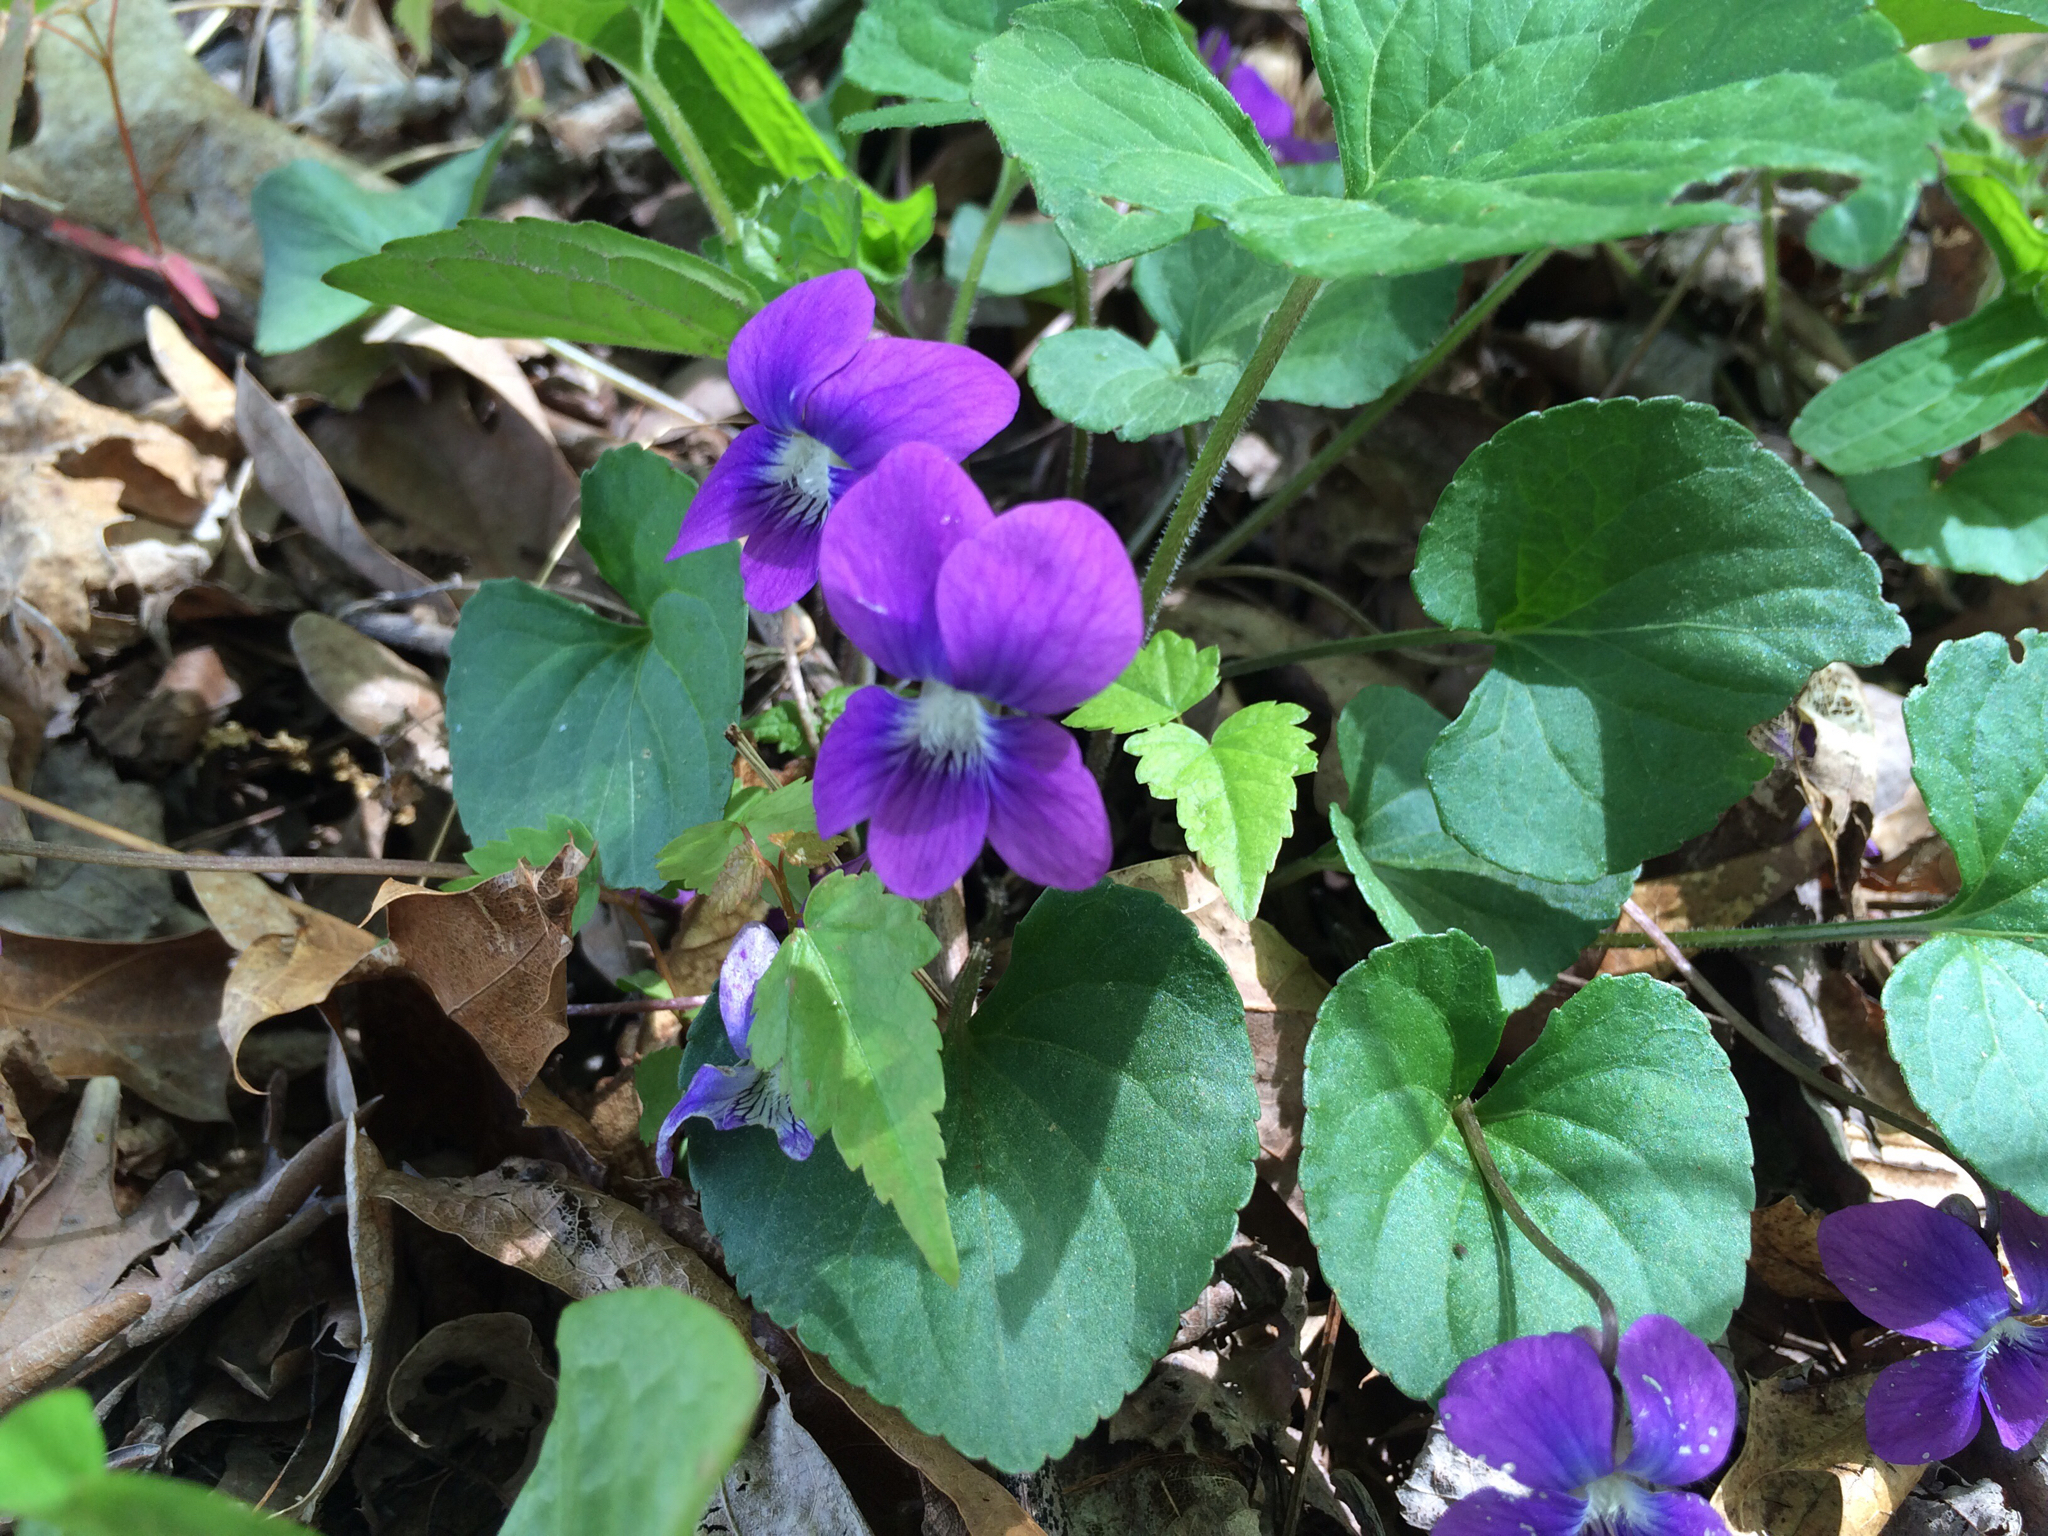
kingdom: Plantae
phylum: Tracheophyta
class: Magnoliopsida
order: Malpighiales
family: Violaceae
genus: Viola
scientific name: Viola sororia
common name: Dooryard violet
